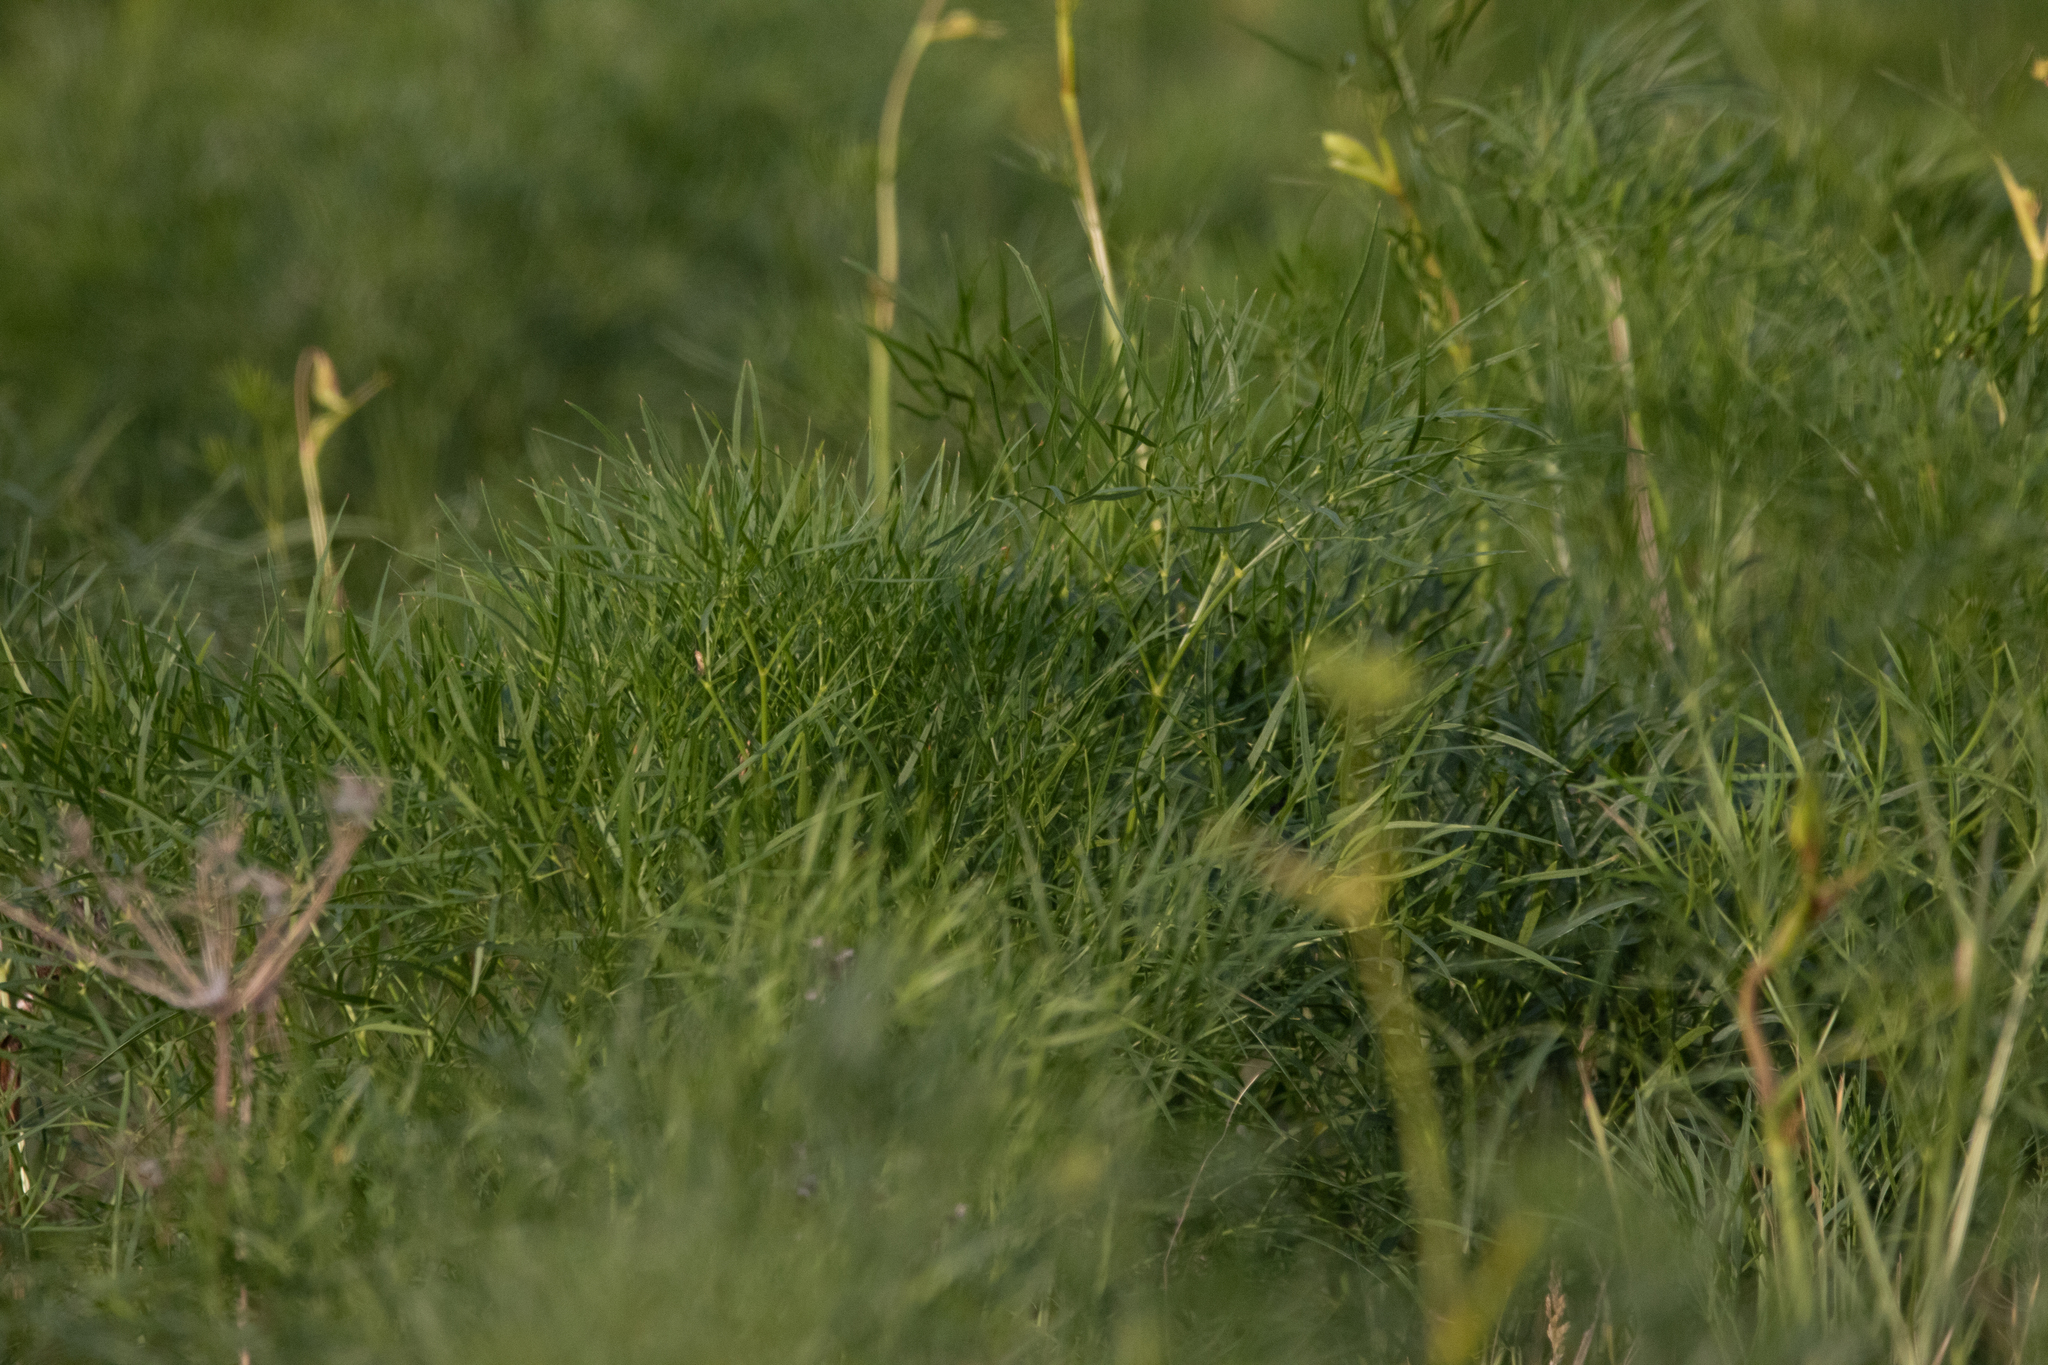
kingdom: Plantae
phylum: Tracheophyta
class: Magnoliopsida
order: Apiales
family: Apiaceae
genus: Peucedanum
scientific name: Peucedanum morisonii
